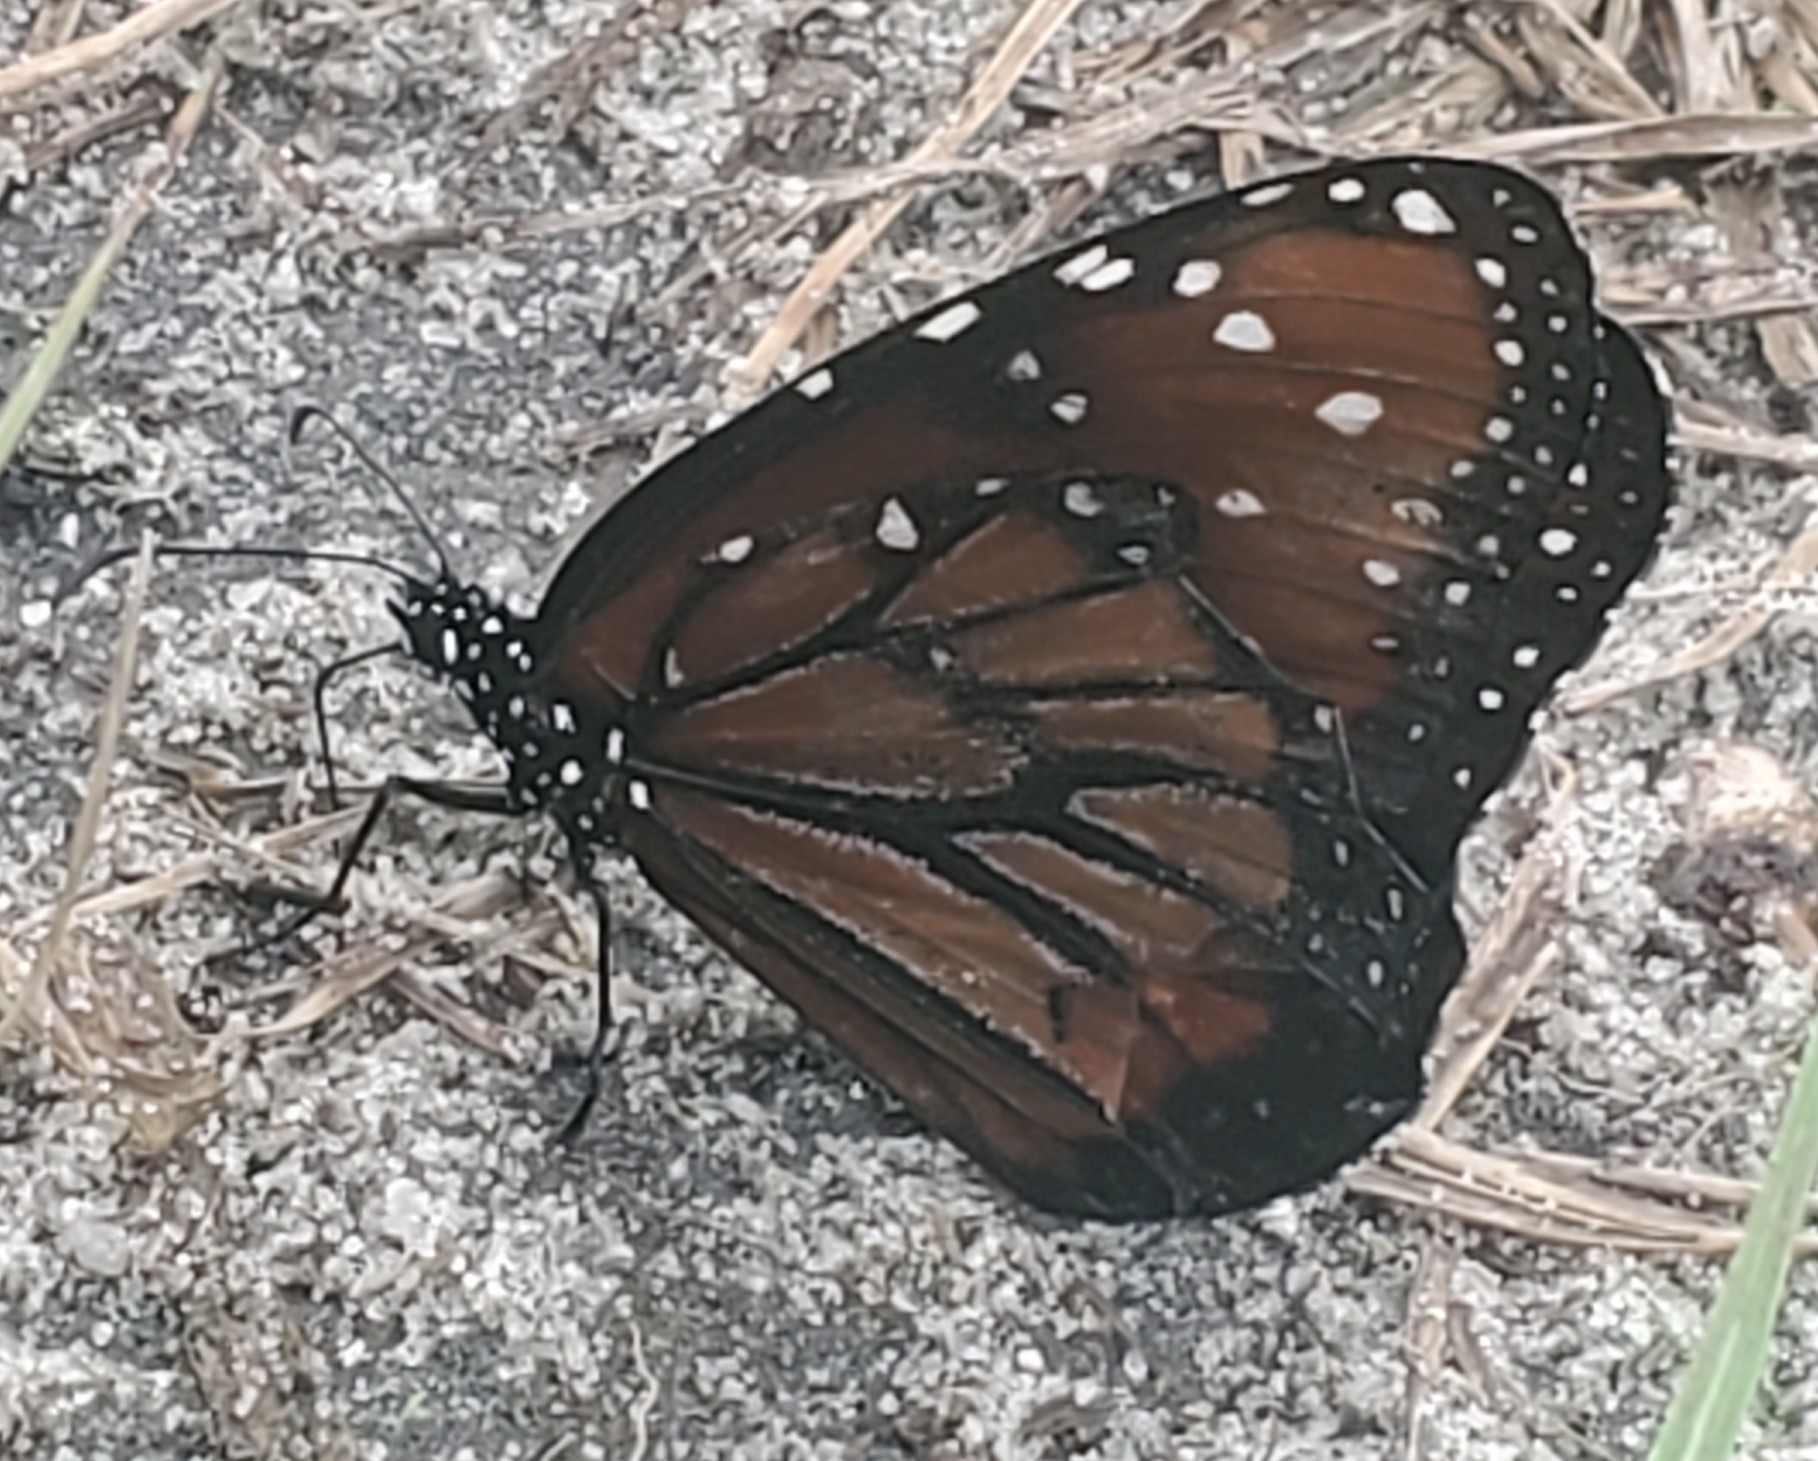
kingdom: Animalia
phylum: Arthropoda
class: Insecta
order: Lepidoptera
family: Nymphalidae
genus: Danaus
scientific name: Danaus gilippus
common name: Queen
